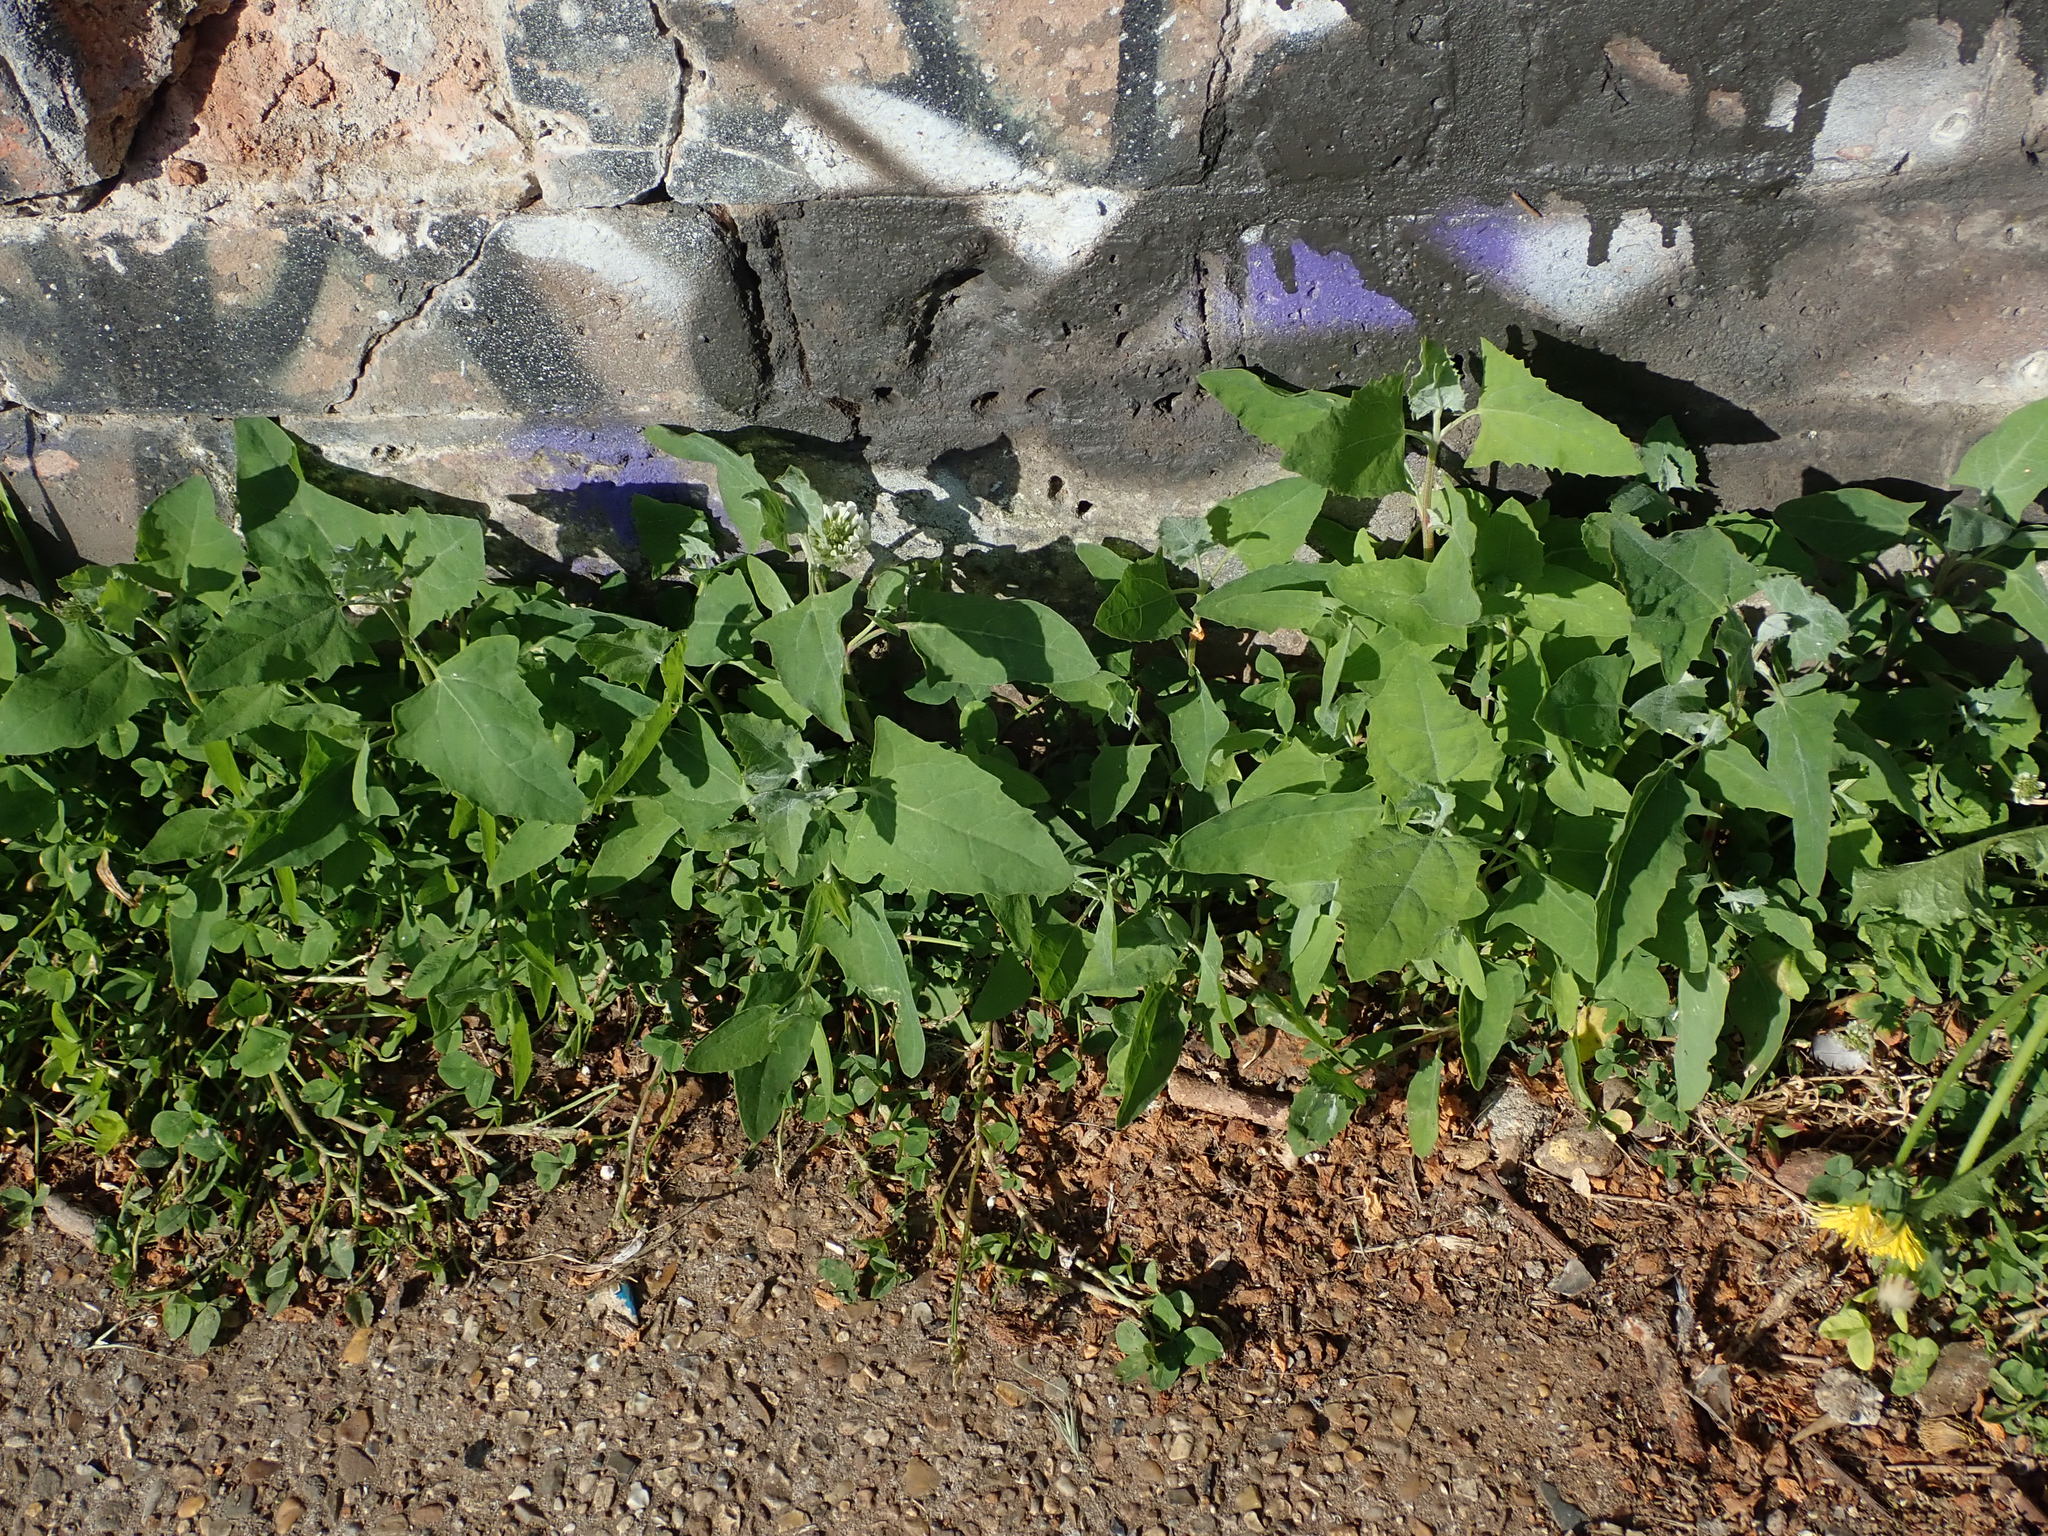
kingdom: Plantae
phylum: Tracheophyta
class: Magnoliopsida
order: Caryophyllales
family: Amaranthaceae
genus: Chenopodium
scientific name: Chenopodium album
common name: Fat-hen
